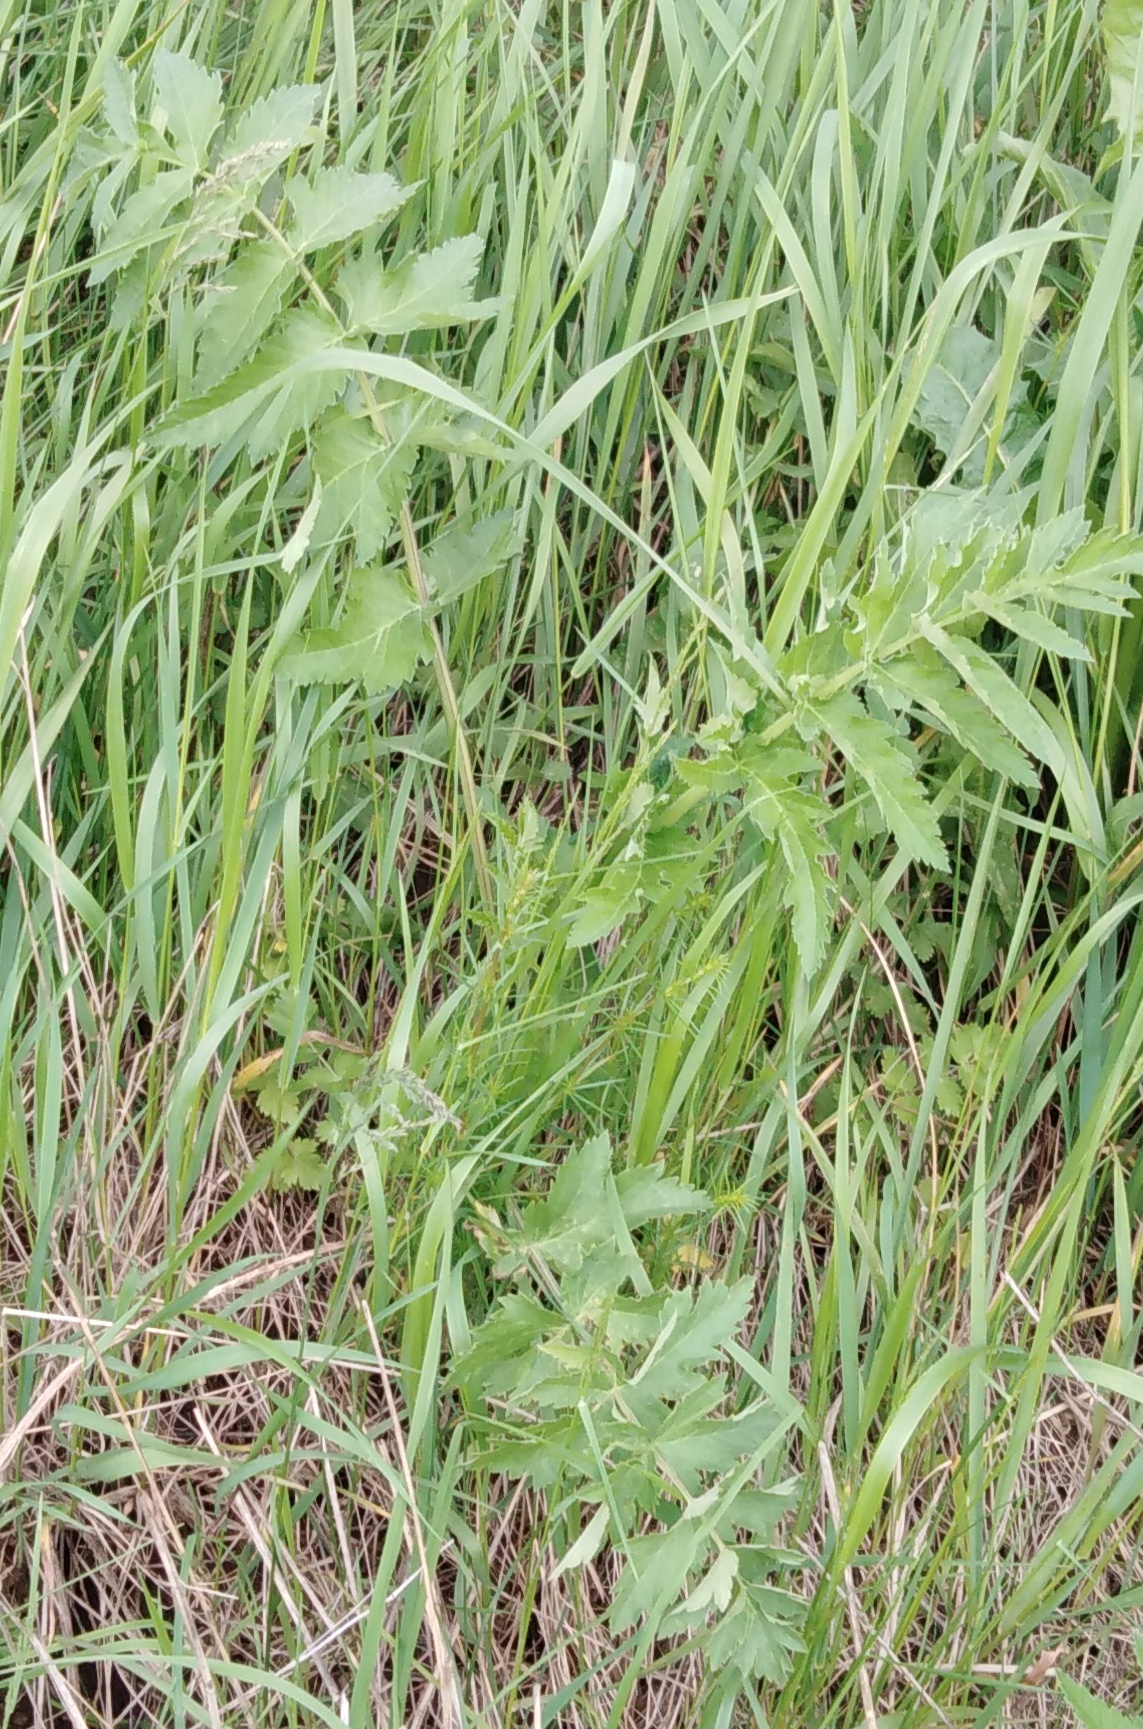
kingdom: Plantae
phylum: Tracheophyta
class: Magnoliopsida
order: Apiales
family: Apiaceae
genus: Pastinaca
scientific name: Pastinaca sativa
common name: Wild parsnip
